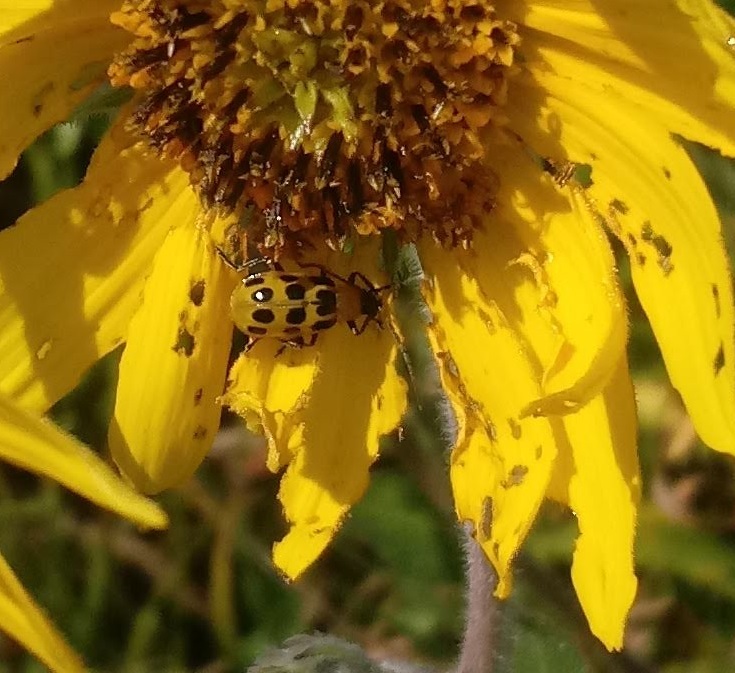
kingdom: Animalia
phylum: Arthropoda
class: Insecta
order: Coleoptera
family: Chrysomelidae
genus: Diabrotica
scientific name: Diabrotica undecimpunctata
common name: Spotted cucumber beetle
